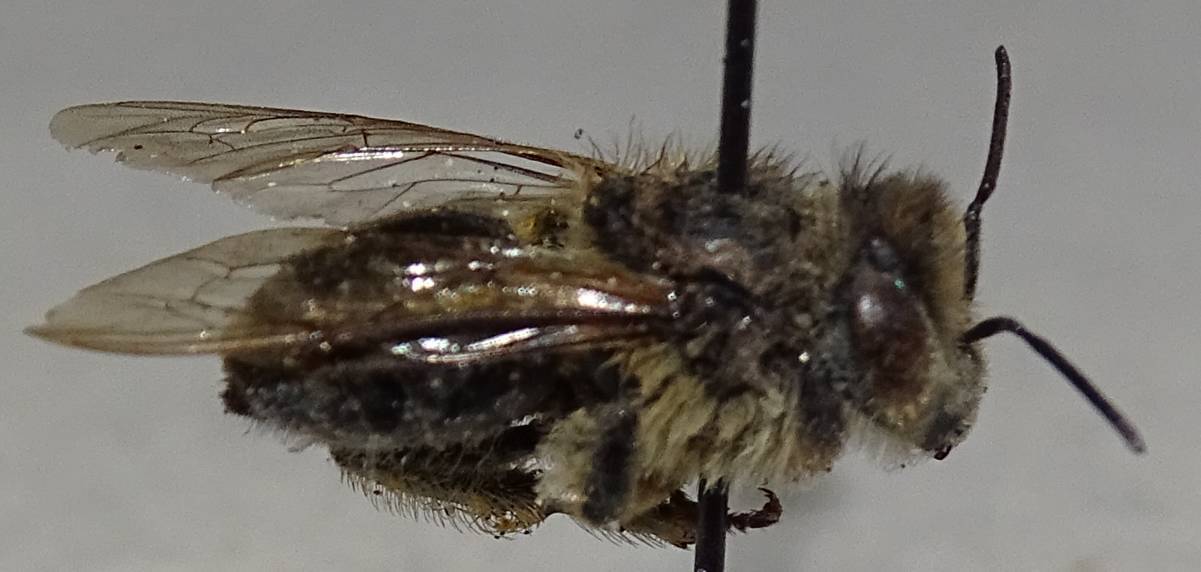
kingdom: Animalia
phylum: Arthropoda
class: Insecta
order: Hymenoptera
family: Apidae
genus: Apis
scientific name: Apis mellifera
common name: Honey bee
